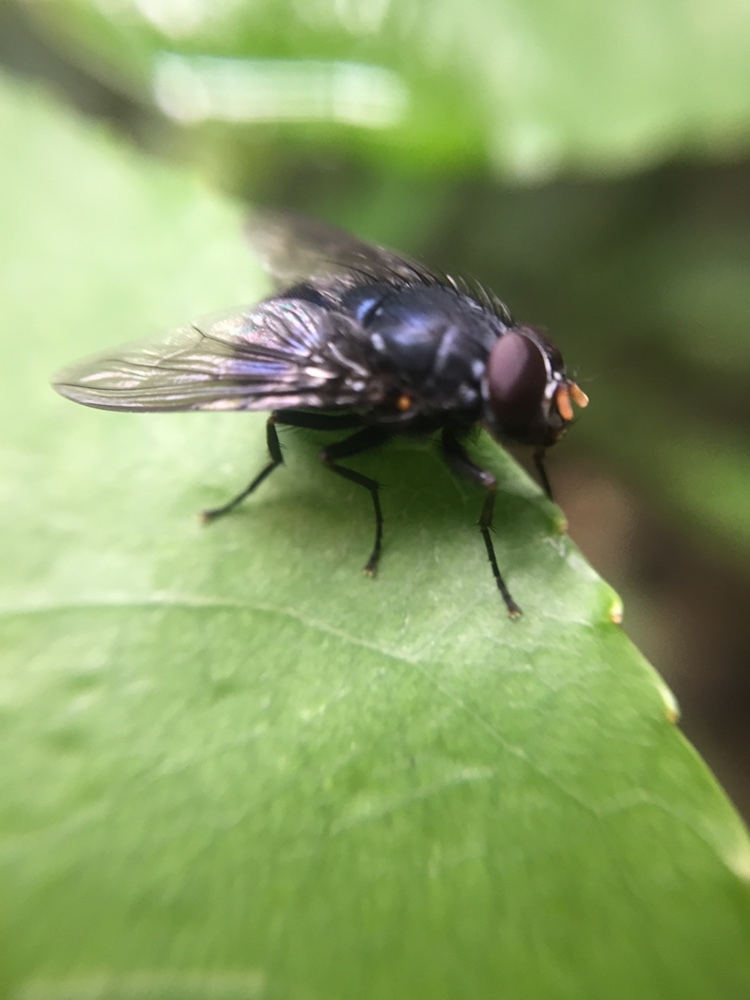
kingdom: Animalia
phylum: Arthropoda
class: Insecta
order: Diptera
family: Muscidae
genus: Calliphoroides
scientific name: Calliphoroides antennatis
